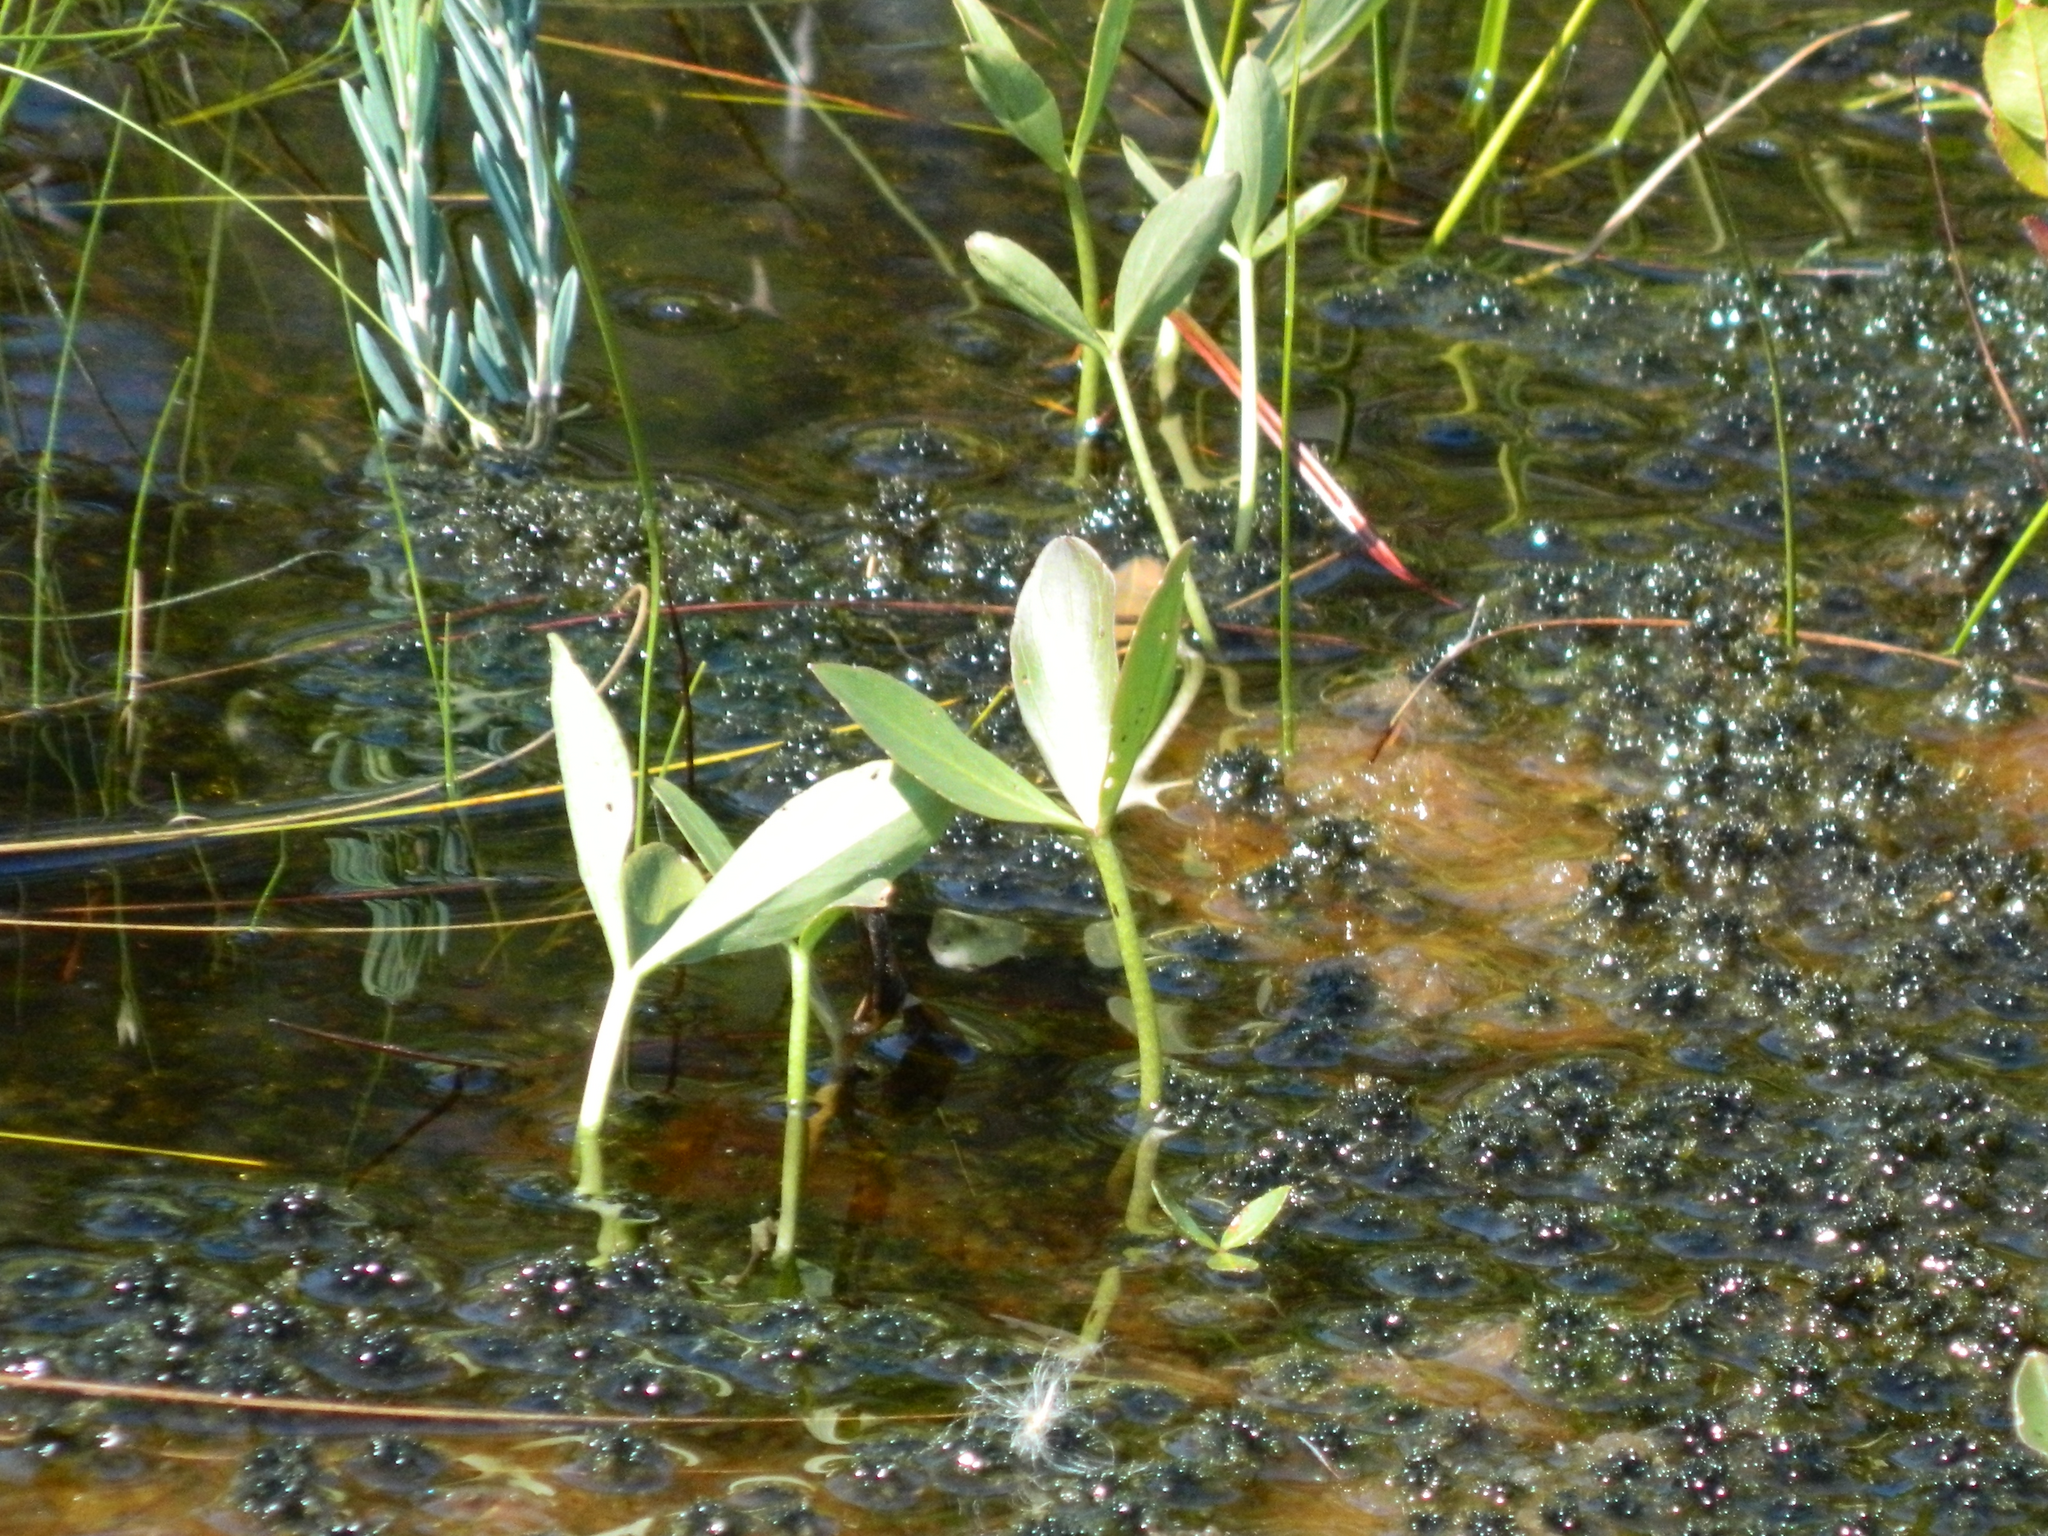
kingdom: Plantae
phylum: Tracheophyta
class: Magnoliopsida
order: Asterales
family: Menyanthaceae
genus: Menyanthes
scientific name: Menyanthes trifoliata
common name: Bogbean
